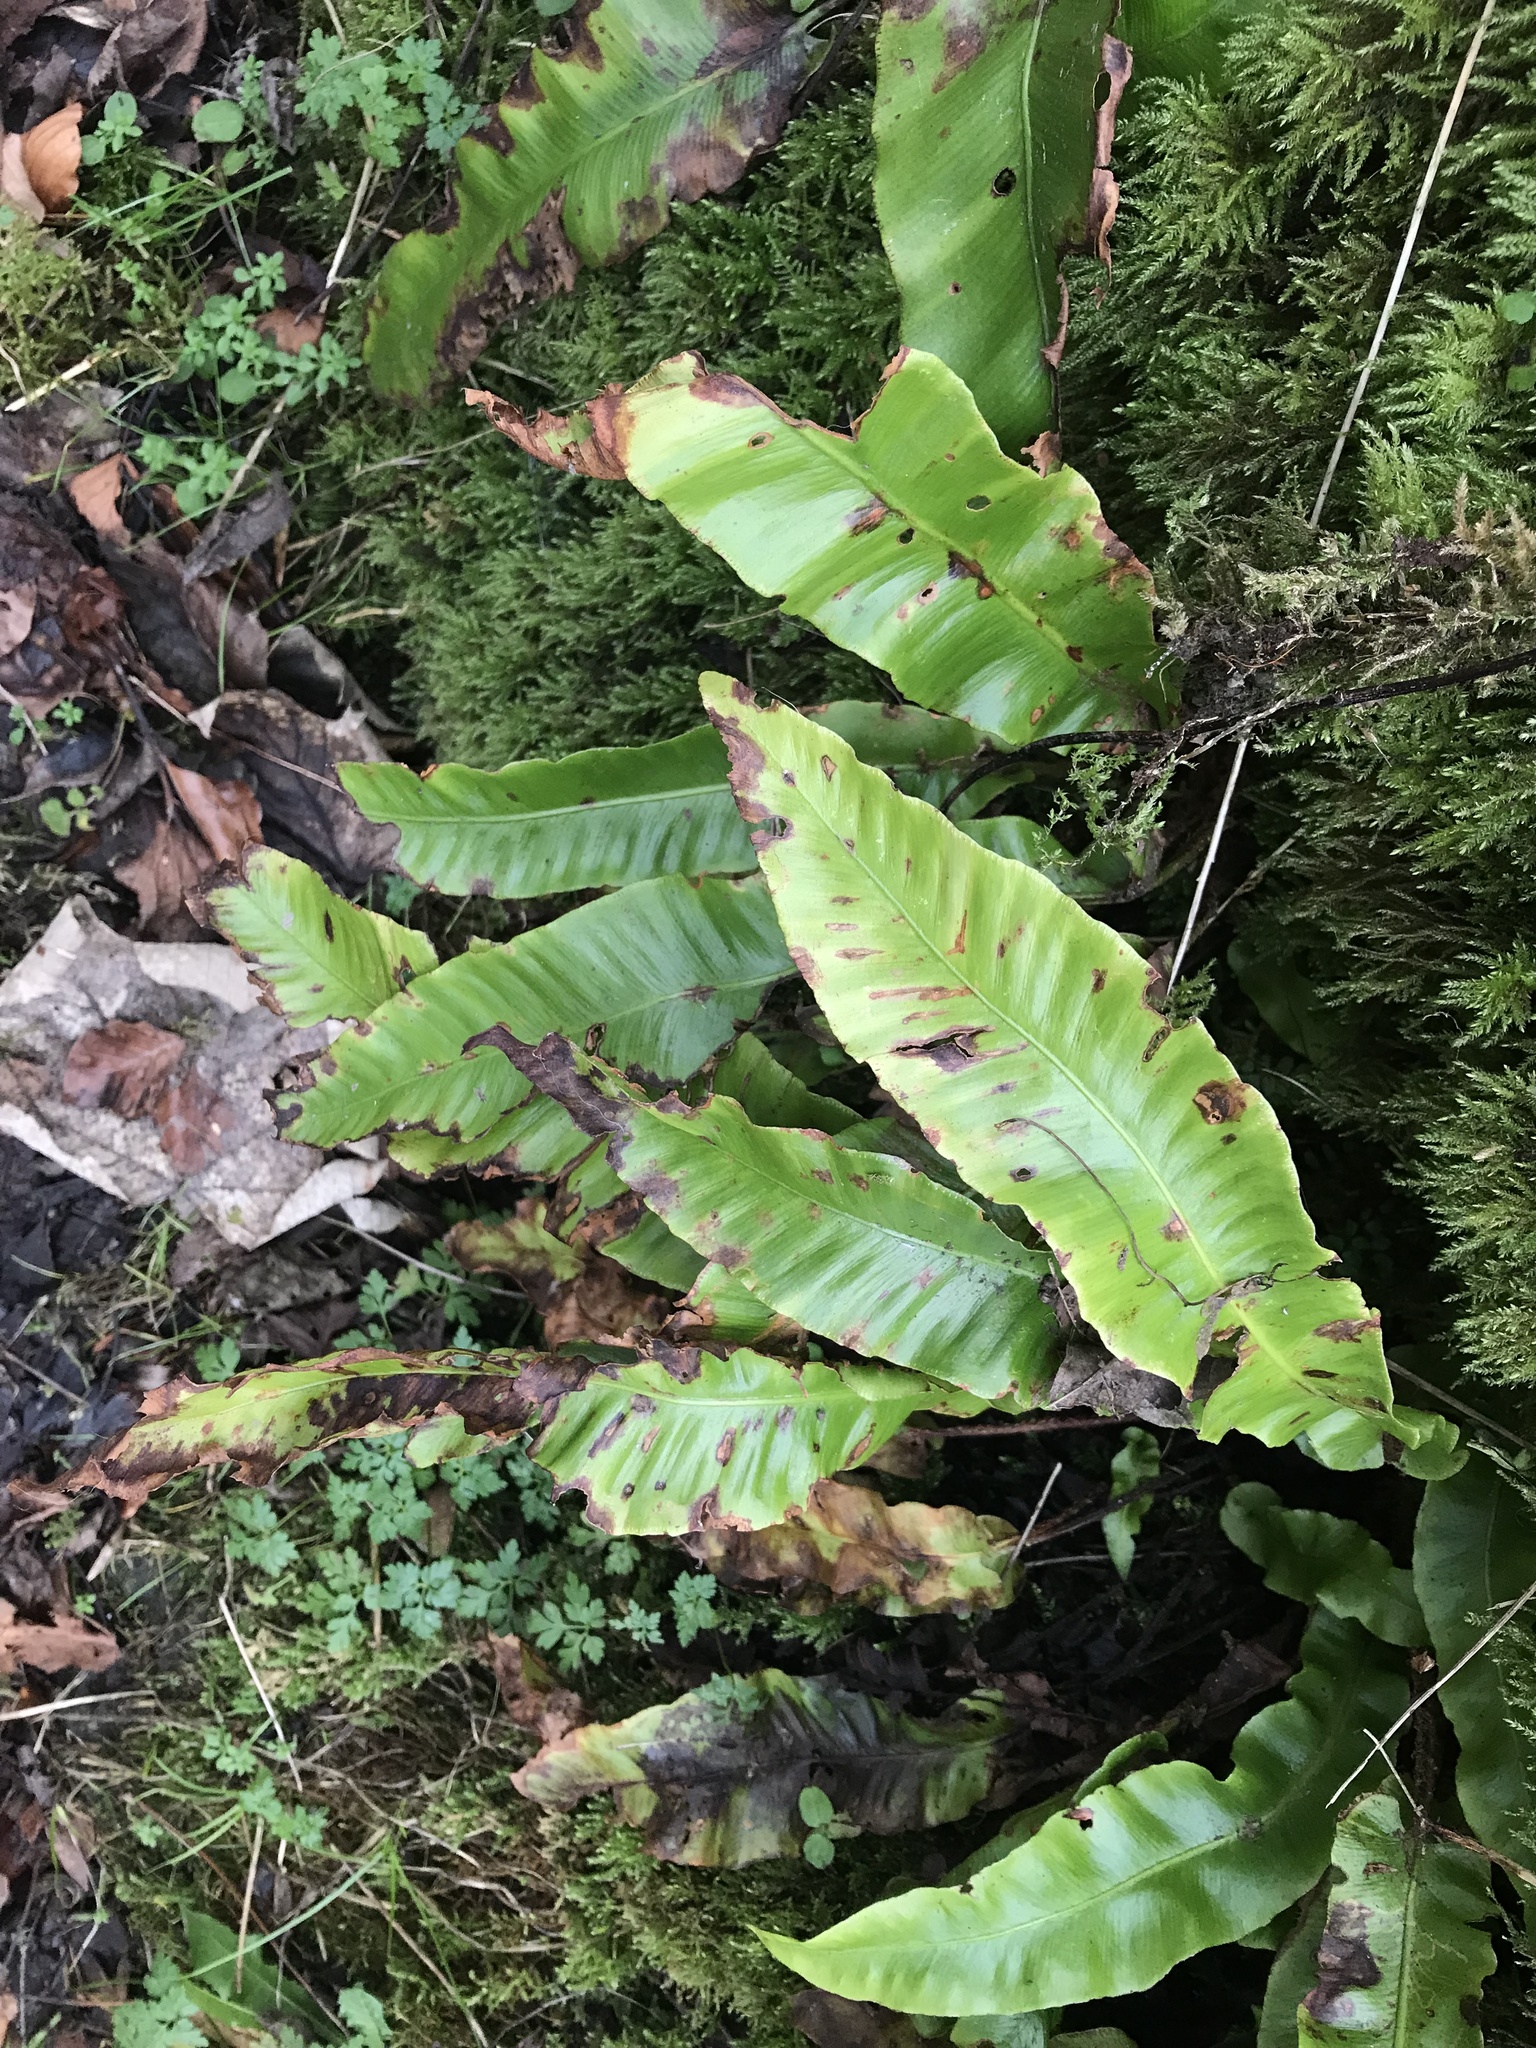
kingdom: Plantae
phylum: Tracheophyta
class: Polypodiopsida
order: Polypodiales
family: Aspleniaceae
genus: Asplenium
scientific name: Asplenium scolopendrium
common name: Hart's-tongue fern
